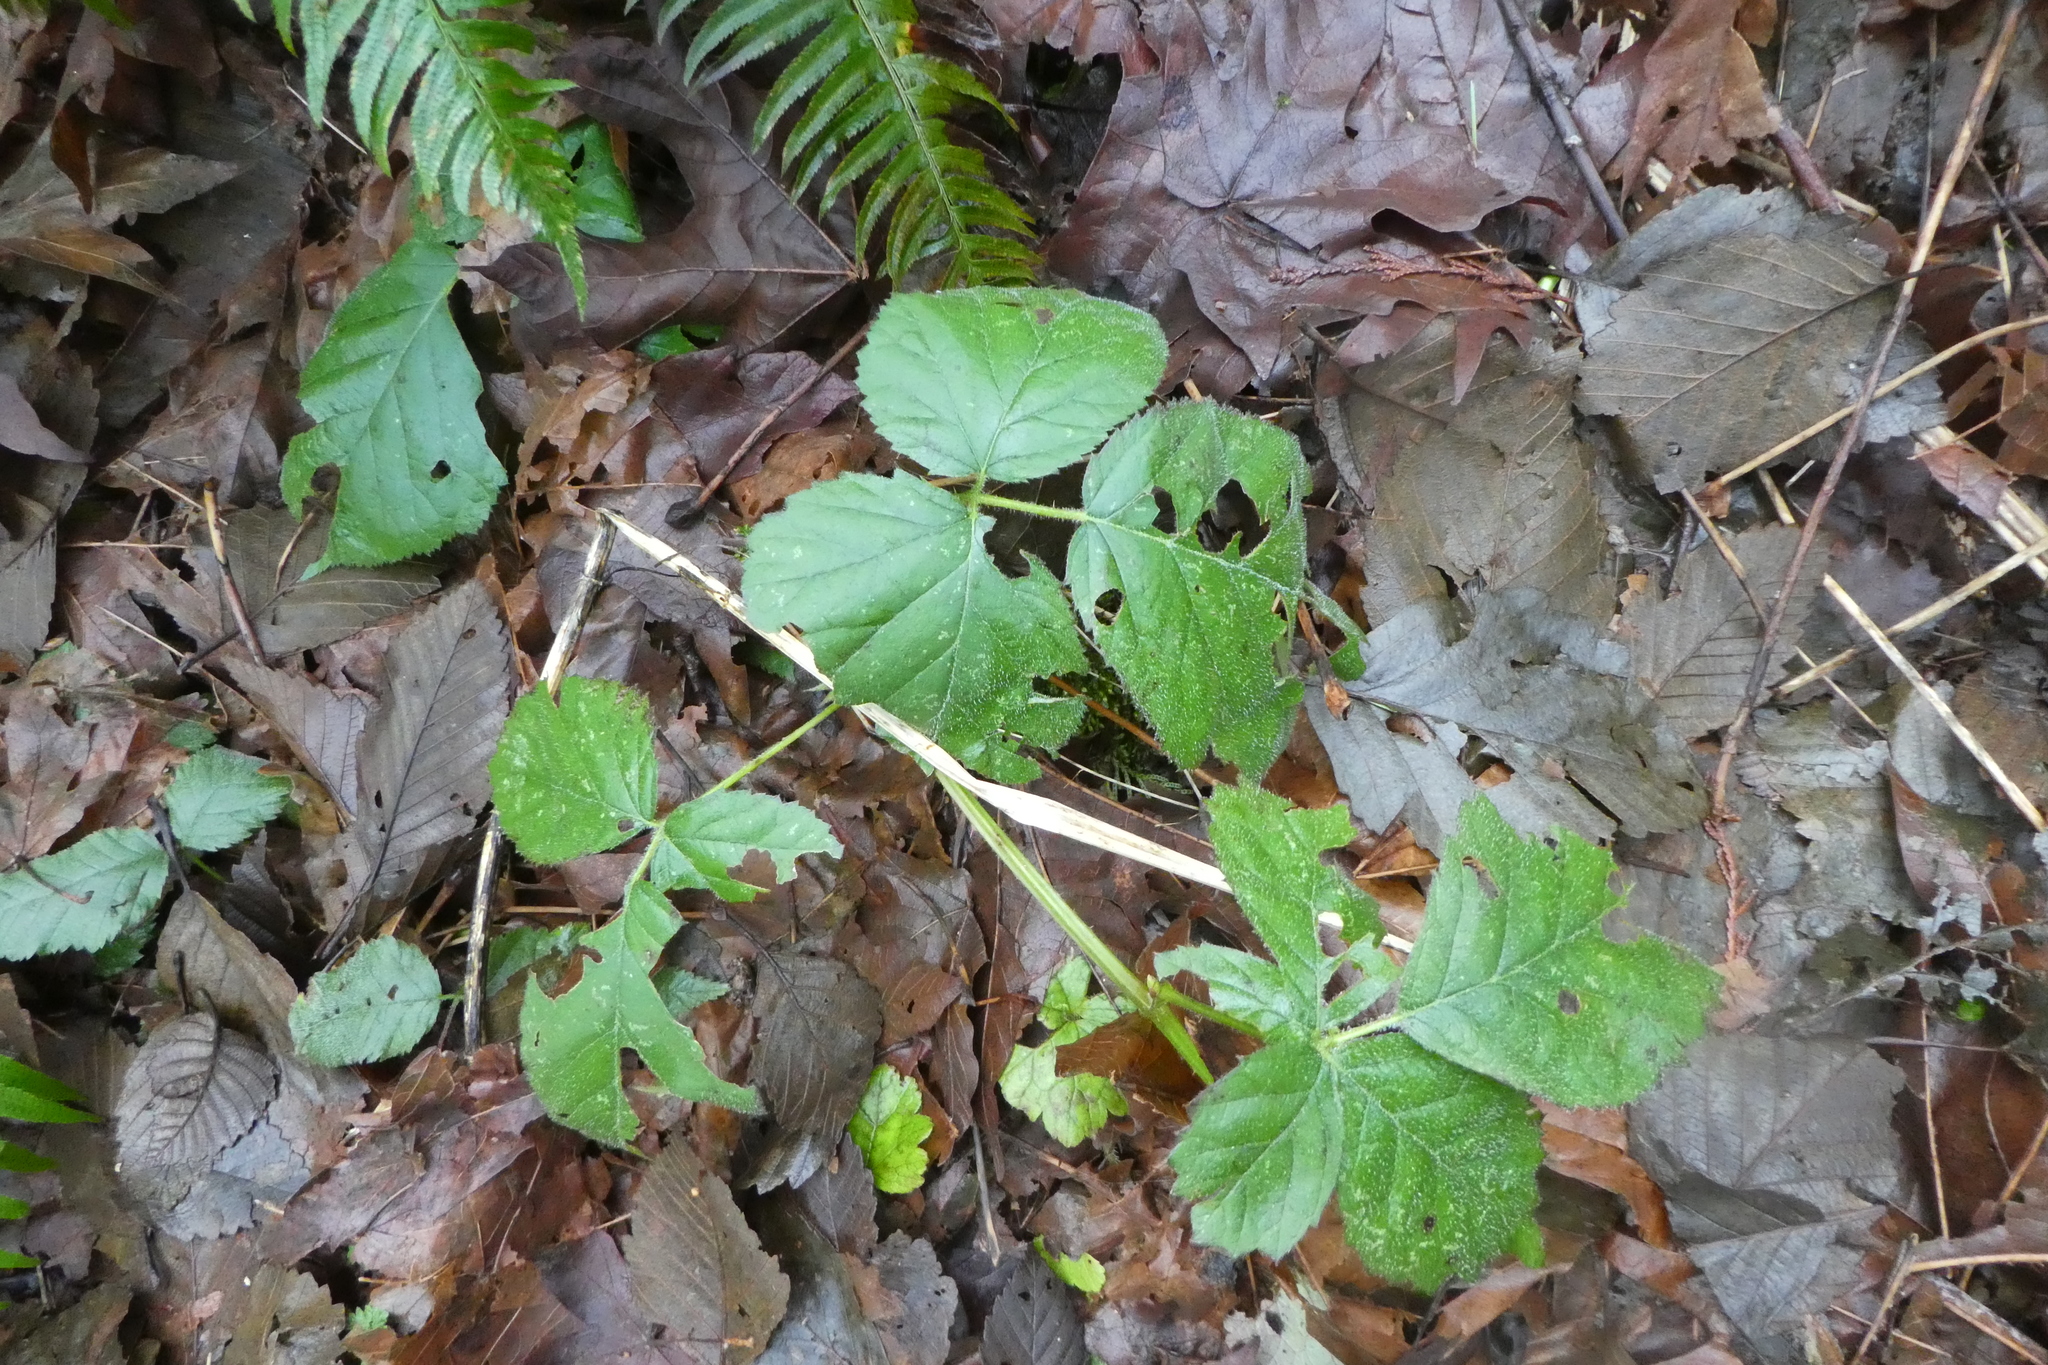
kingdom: Plantae
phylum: Tracheophyta
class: Magnoliopsida
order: Rosales
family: Rosaceae
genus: Rubus
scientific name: Rubus ursinus
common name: Pacific blackberry
